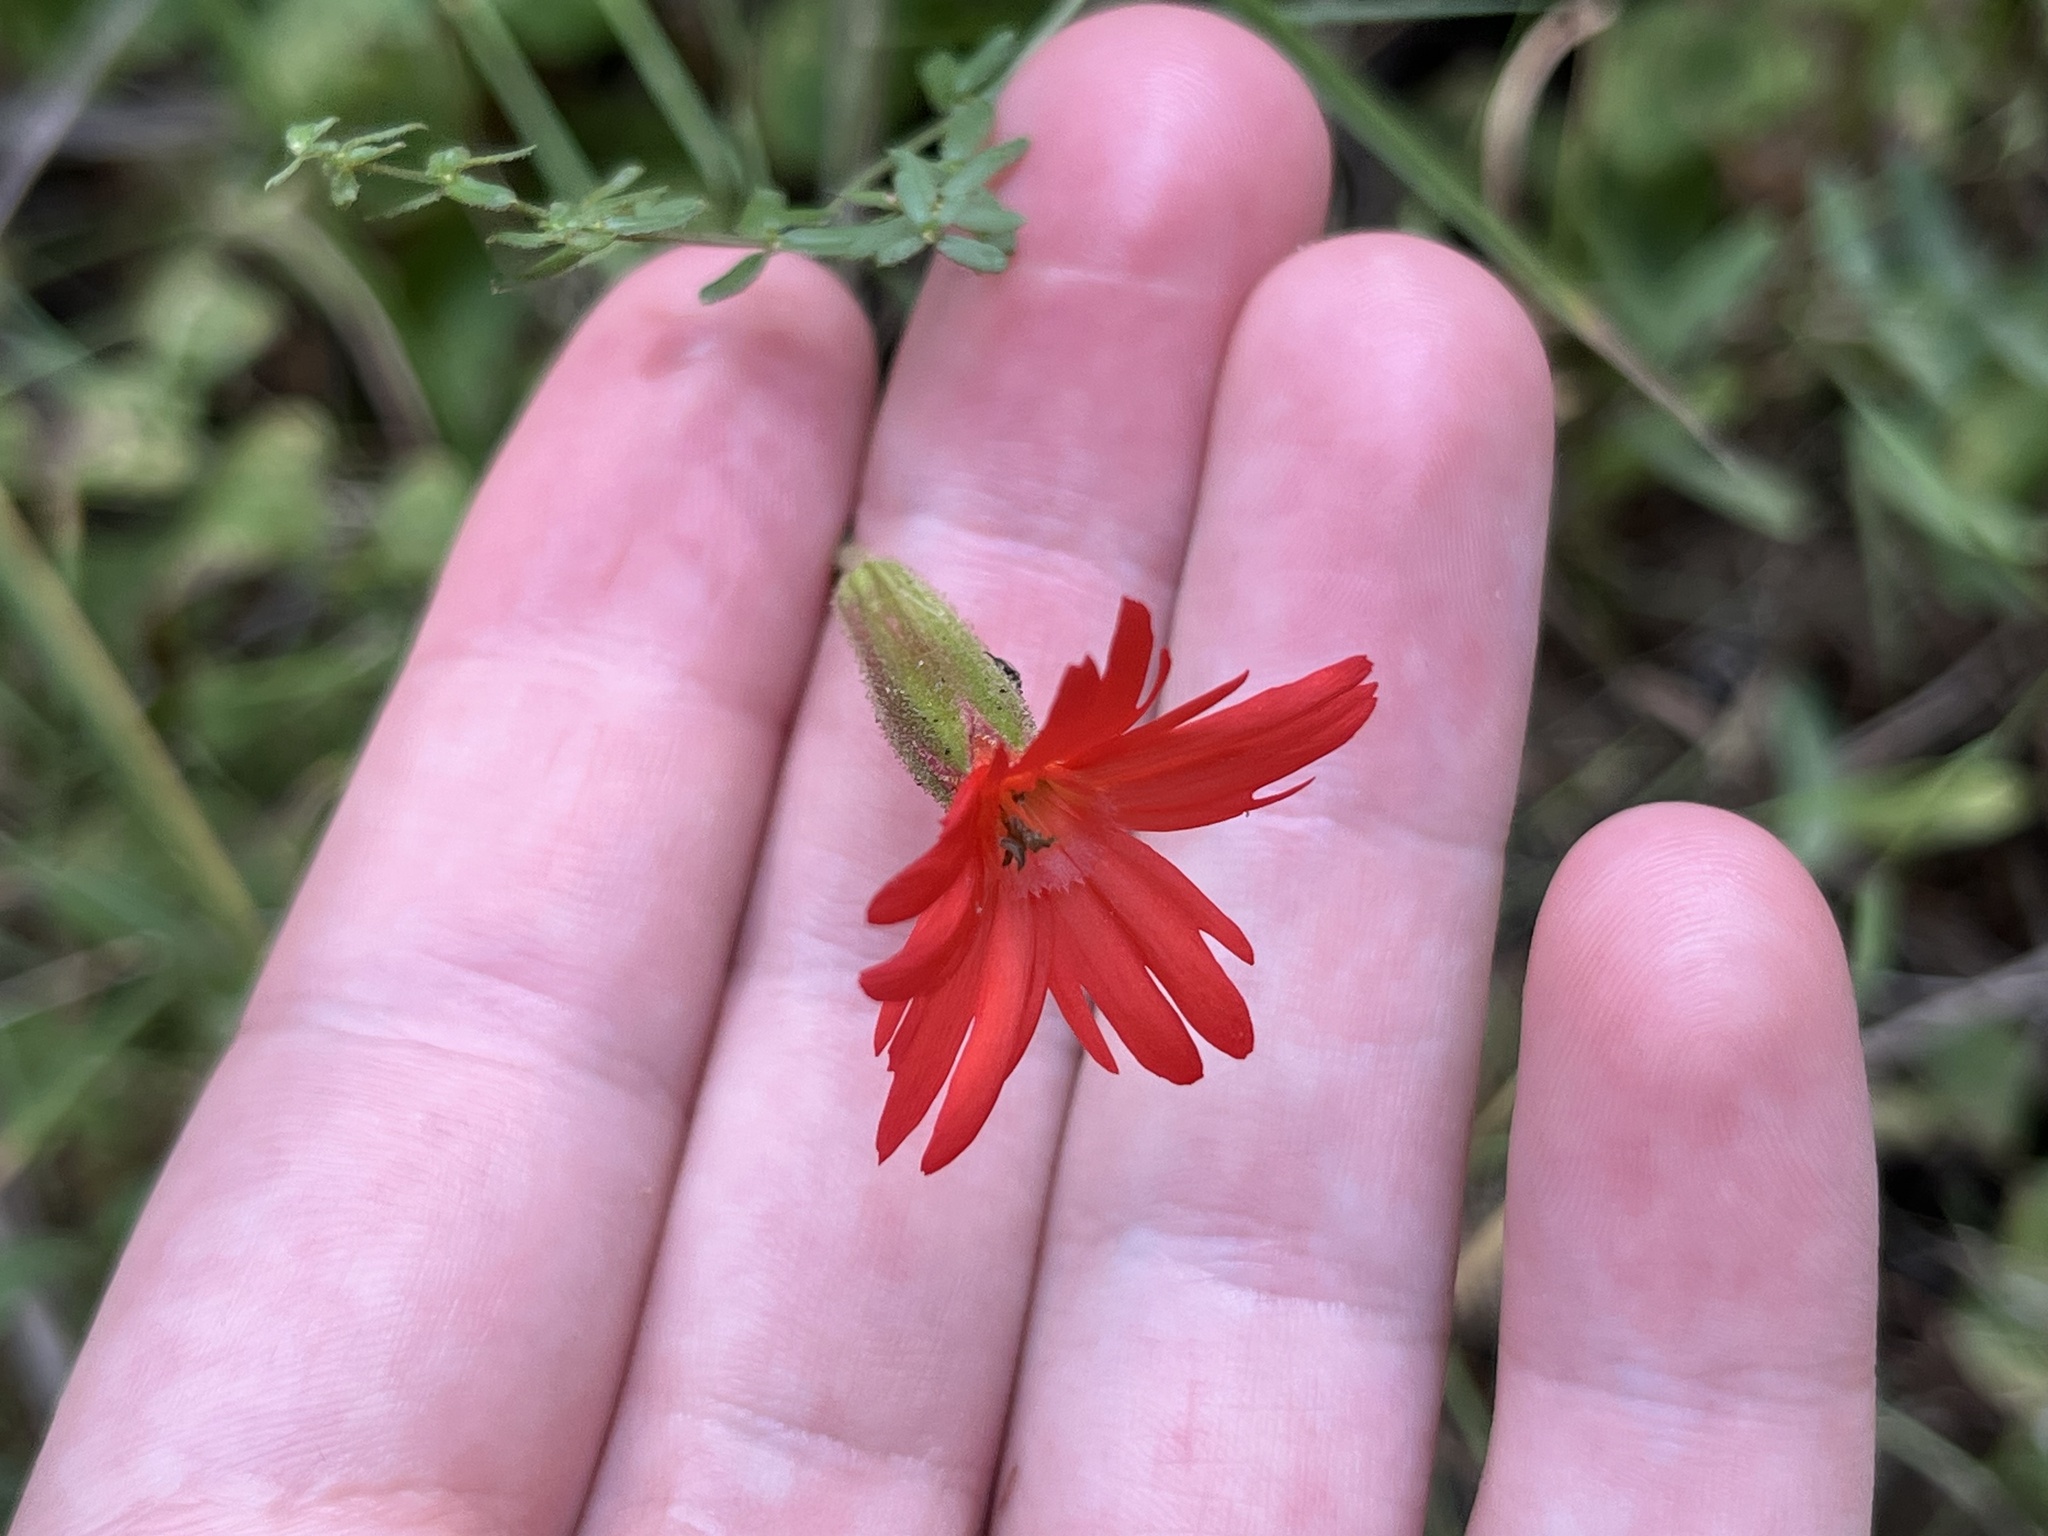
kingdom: Plantae
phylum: Tracheophyta
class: Magnoliopsida
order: Caryophyllales
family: Caryophyllaceae
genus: Silene
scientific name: Silene laciniata
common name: Indian-pink
